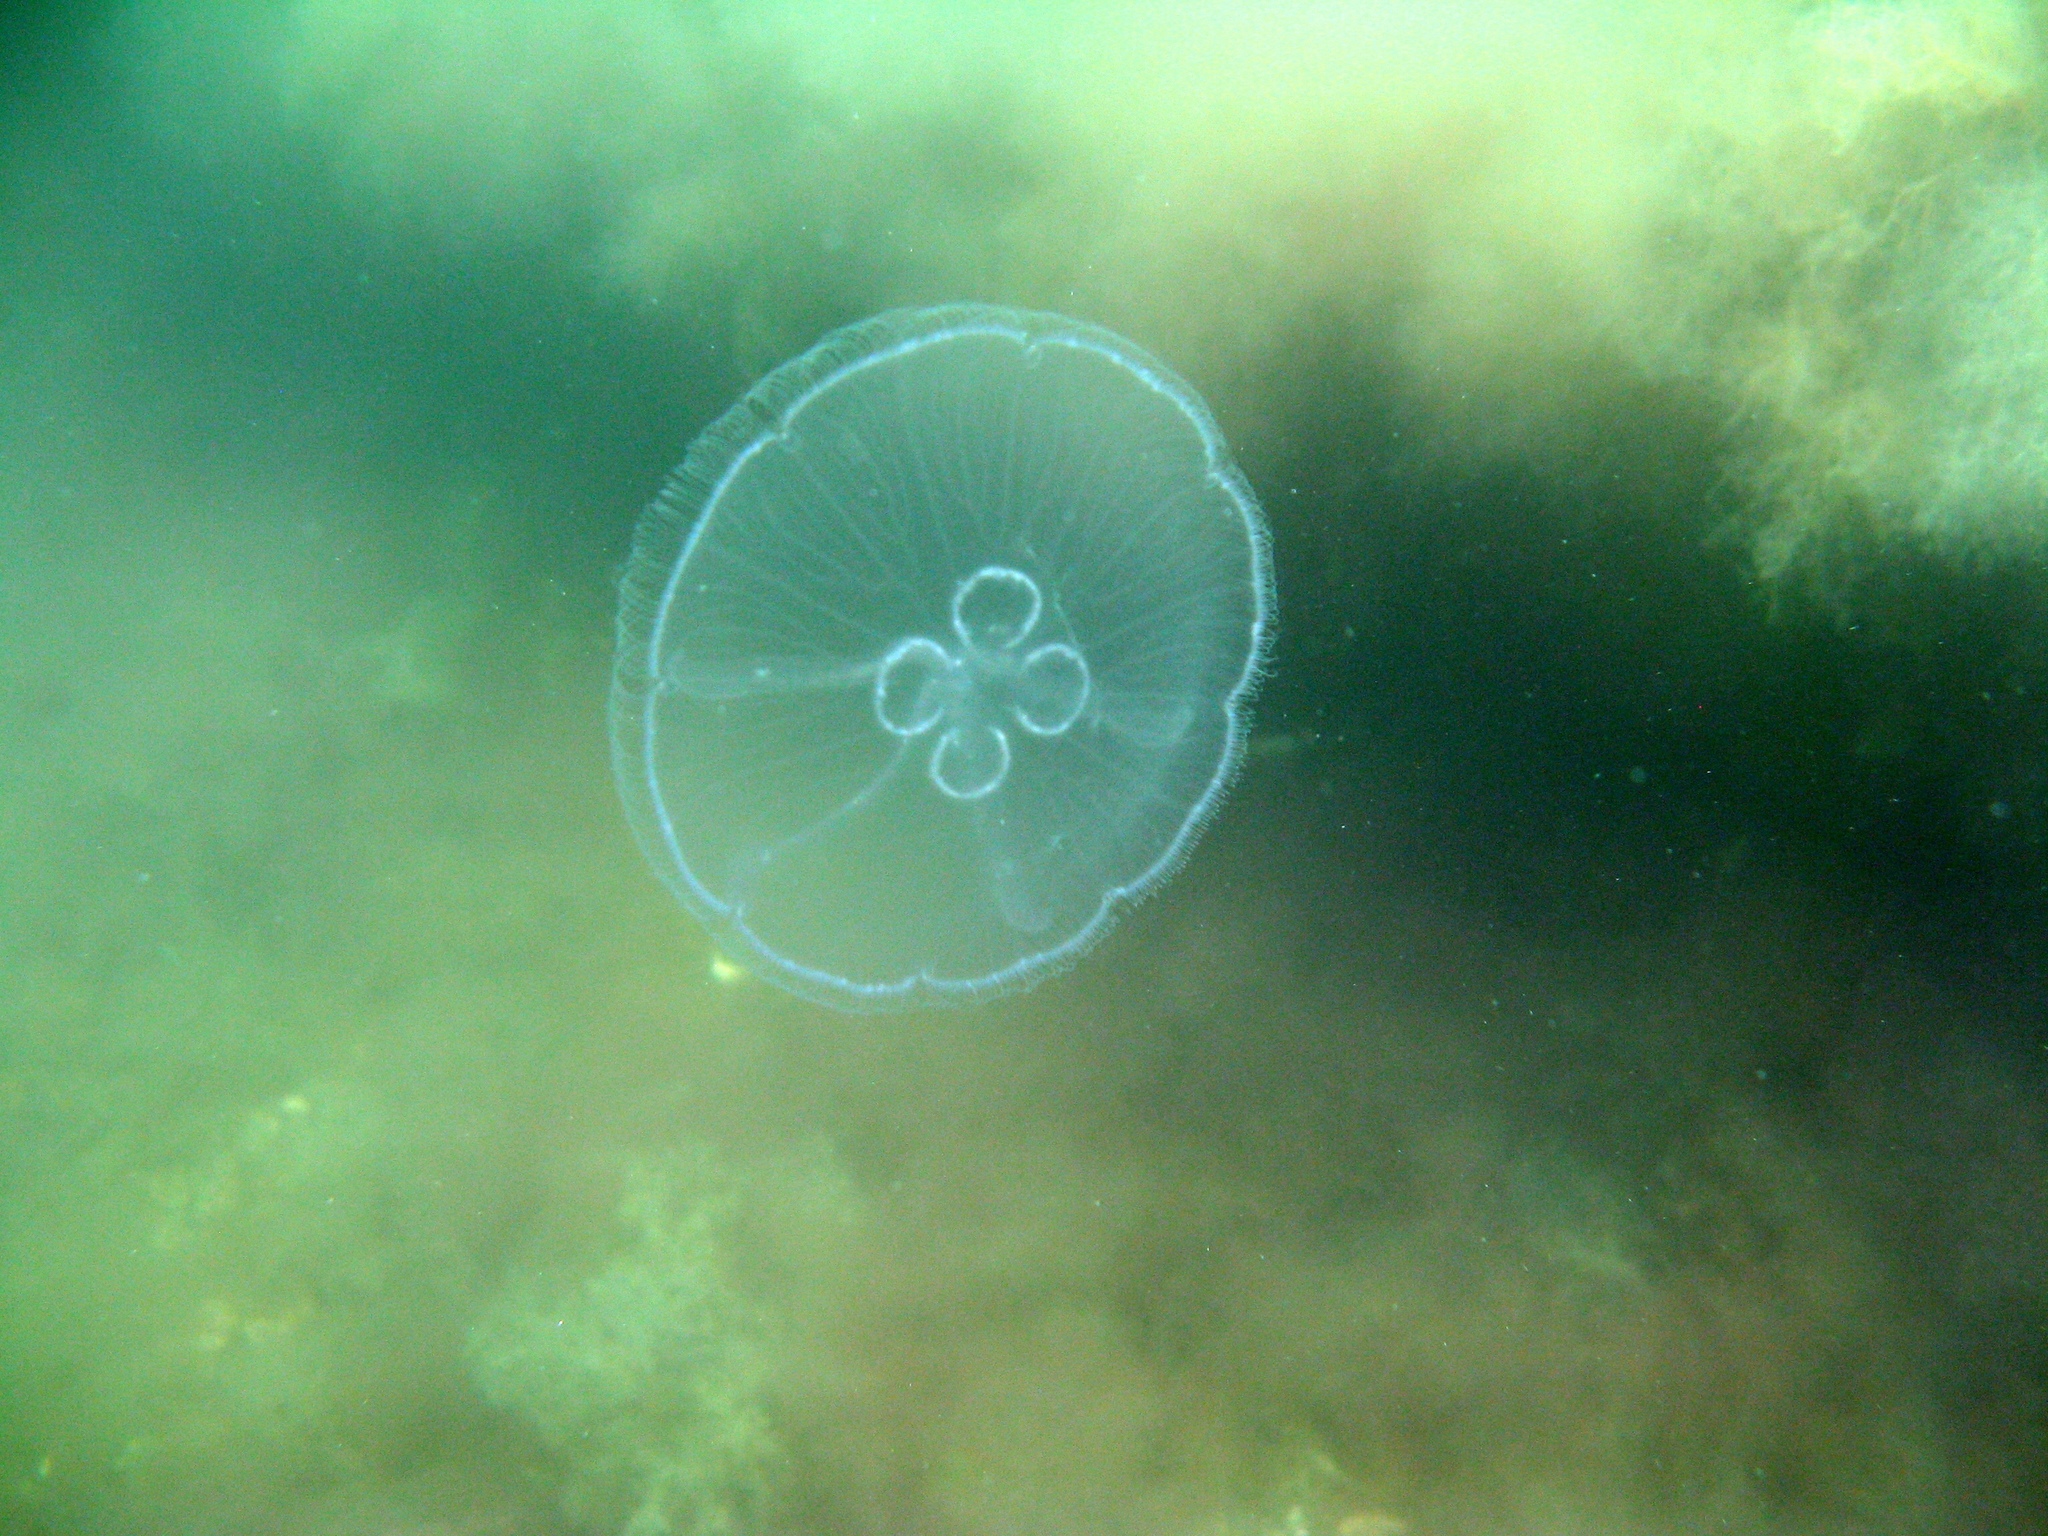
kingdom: Animalia
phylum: Cnidaria
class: Scyphozoa
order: Semaeostomeae
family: Ulmaridae
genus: Aurelia
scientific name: Aurelia aurita
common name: Moon jellyfish
